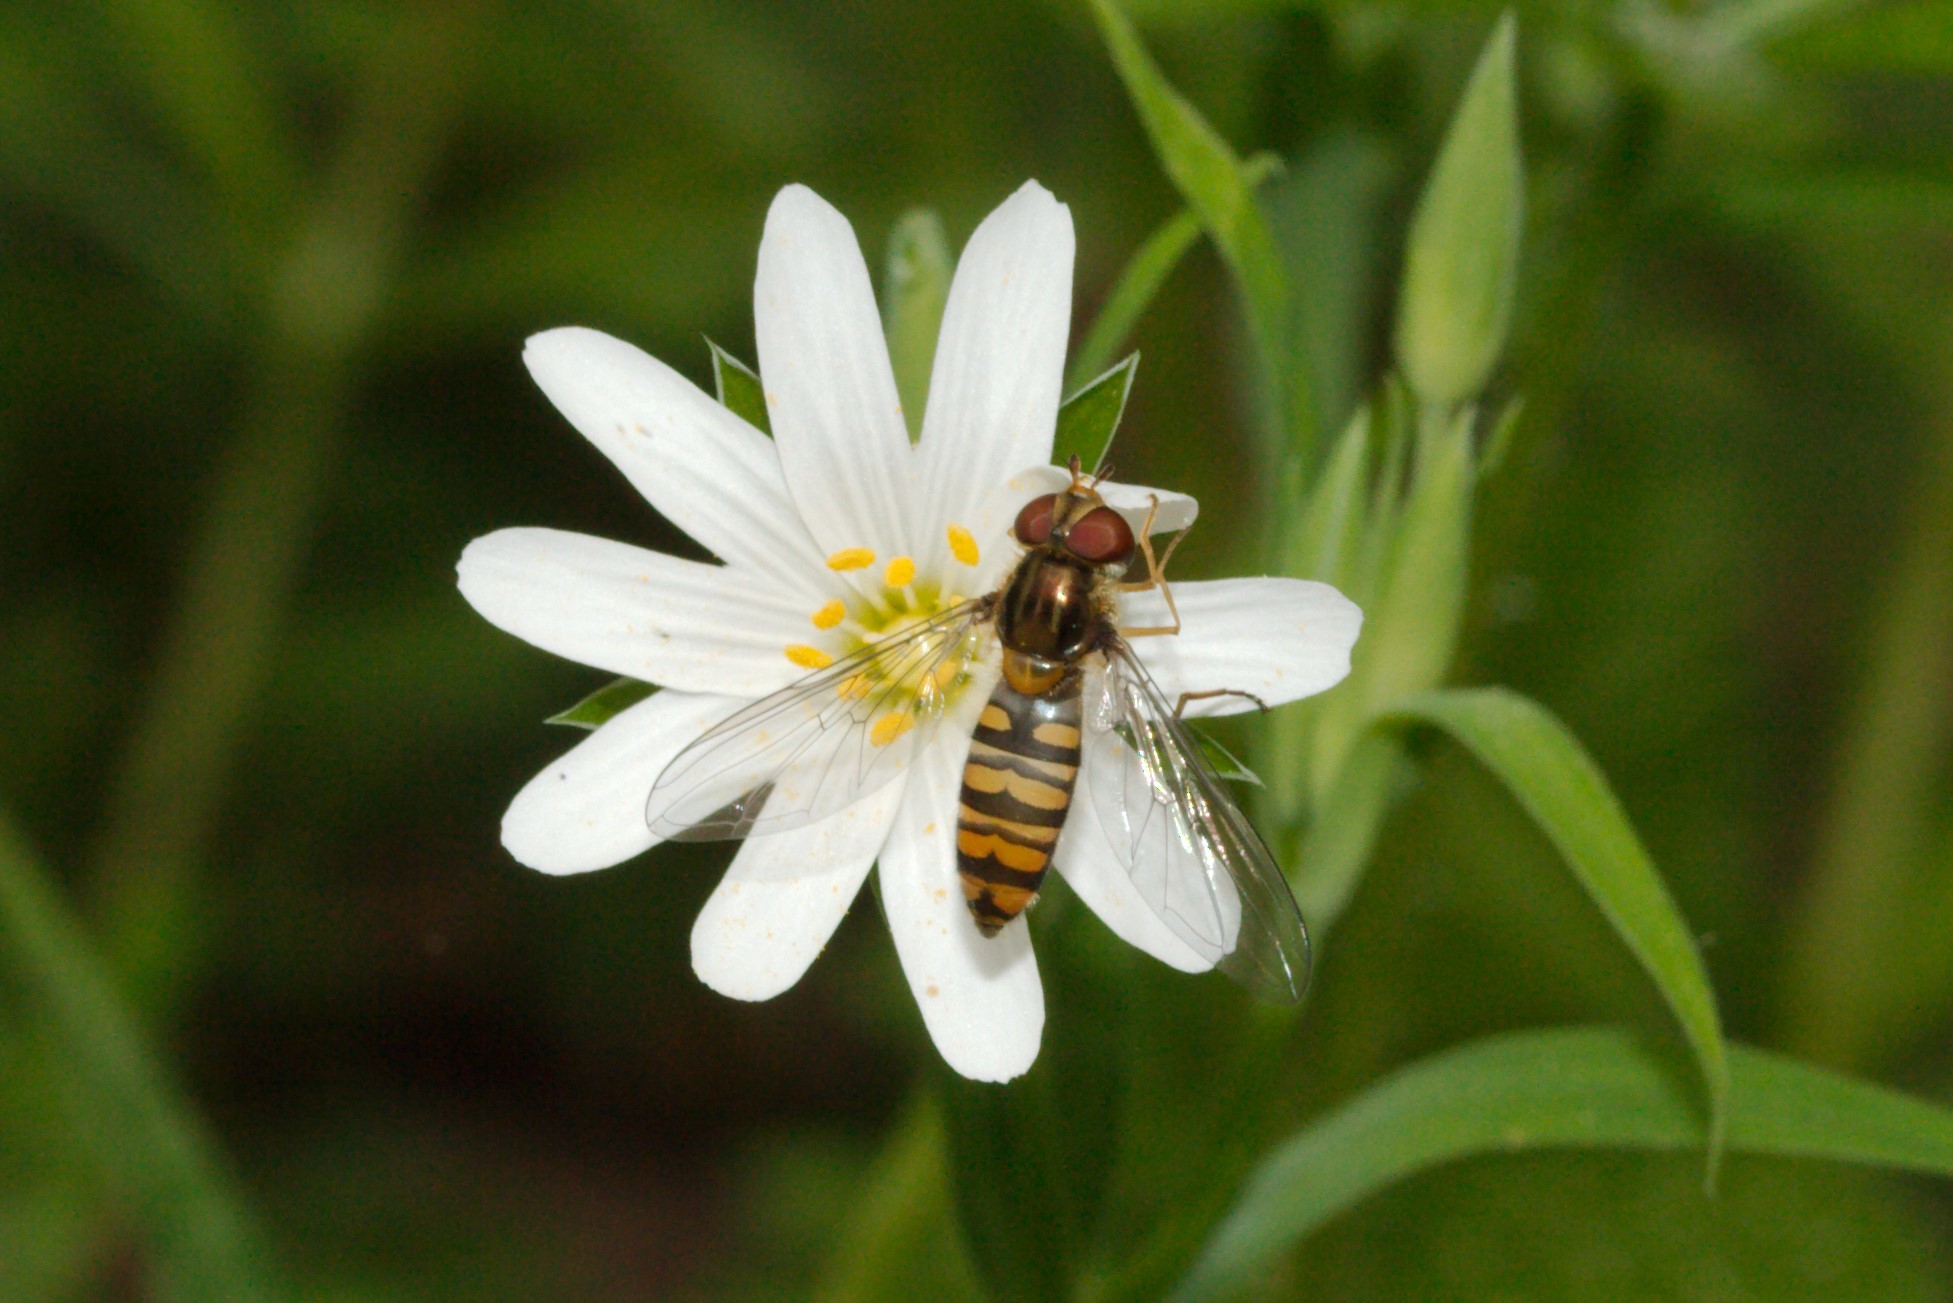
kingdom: Animalia
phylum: Arthropoda
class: Insecta
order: Diptera
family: Syrphidae
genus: Episyrphus
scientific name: Episyrphus balteatus
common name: Marmalade hoverfly
